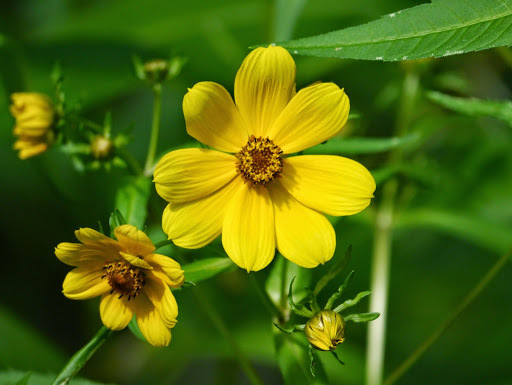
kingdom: Plantae
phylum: Tracheophyta
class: Magnoliopsida
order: Asterales
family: Asteraceae
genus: Bidens
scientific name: Bidens laevis
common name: Larger bur-marigold
